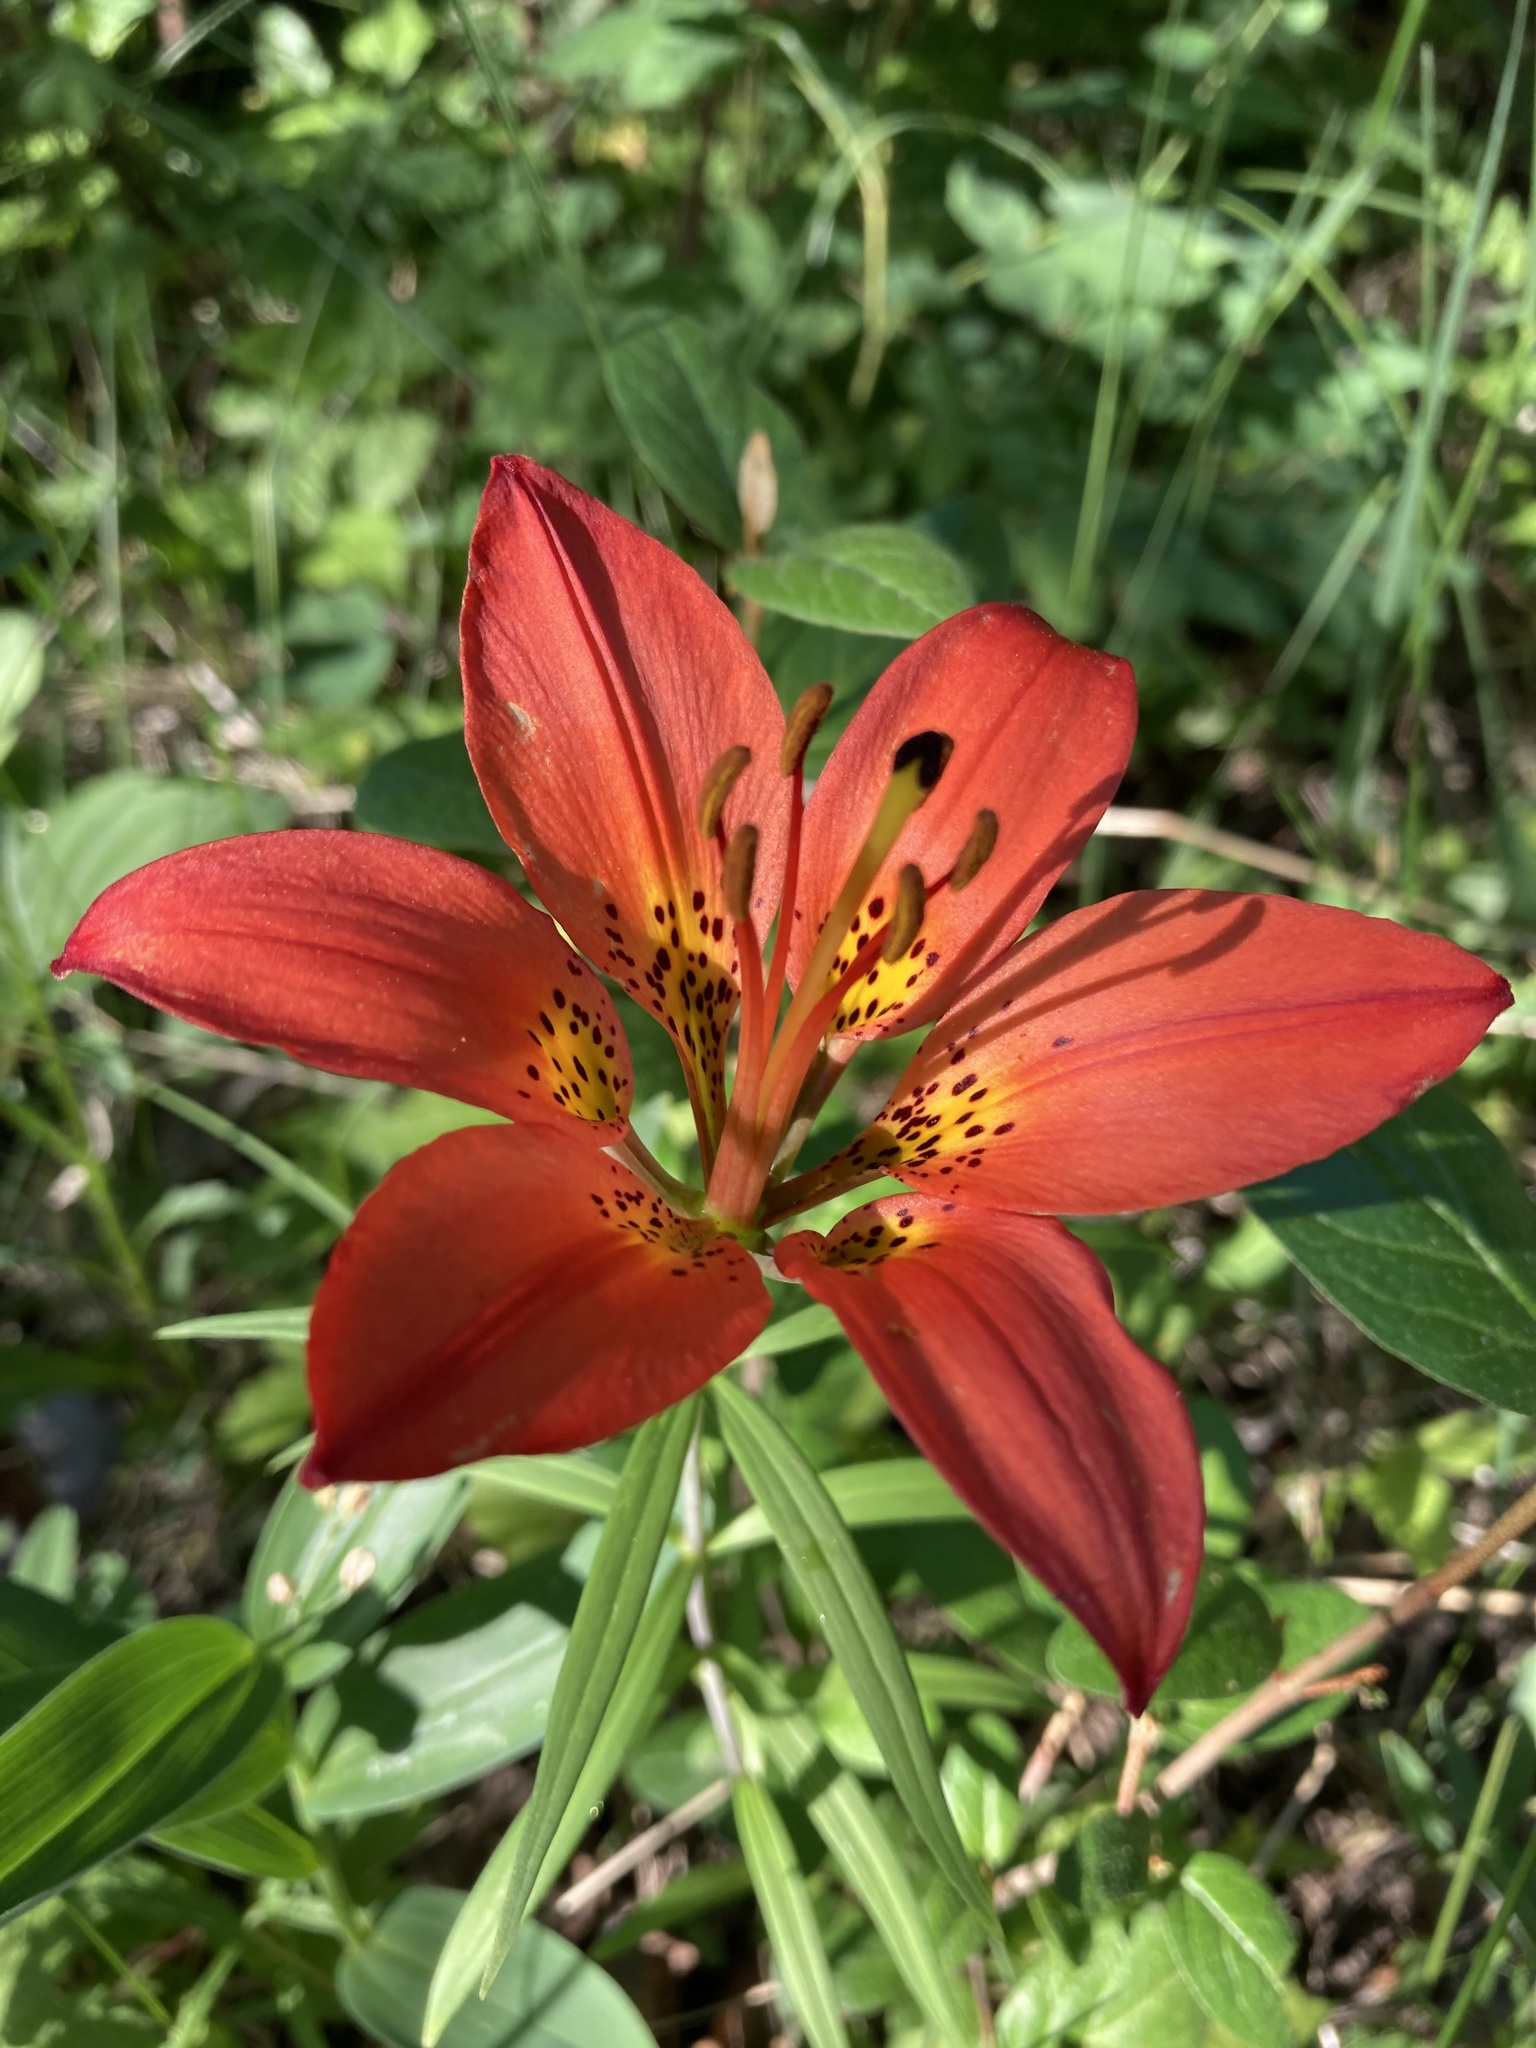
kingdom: Plantae
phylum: Tracheophyta
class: Liliopsida
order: Liliales
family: Liliaceae
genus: Lilium
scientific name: Lilium philadelphicum
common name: Red lily
